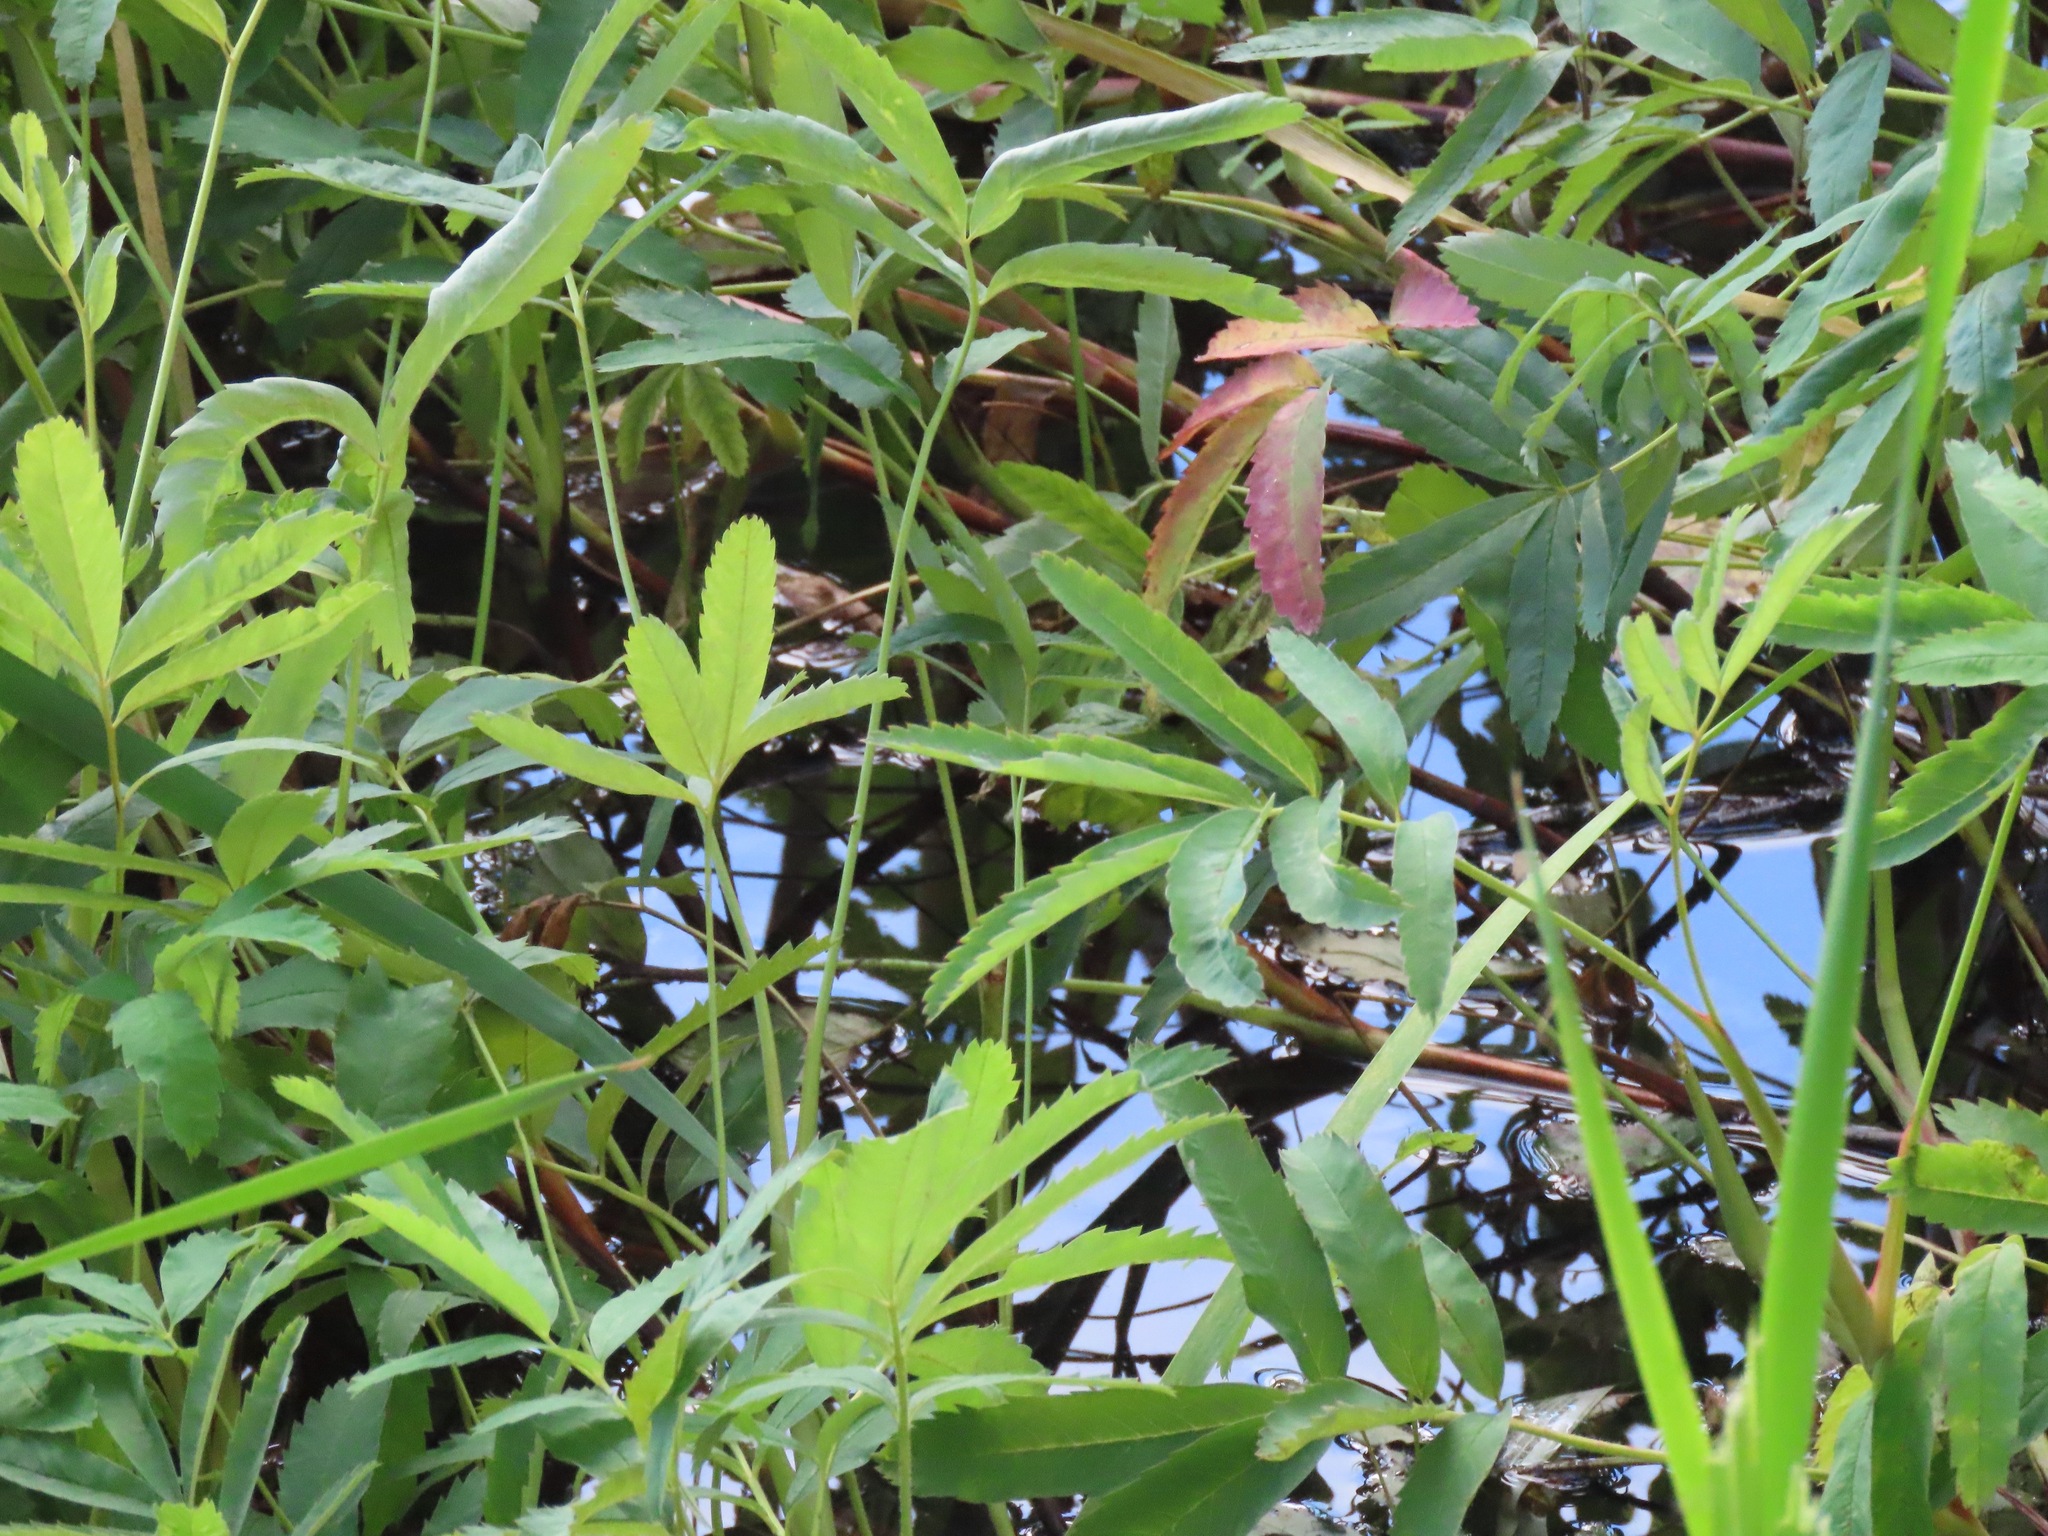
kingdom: Plantae
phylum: Tracheophyta
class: Magnoliopsida
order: Rosales
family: Rosaceae
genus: Comarum
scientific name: Comarum palustre
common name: Marsh cinquefoil
